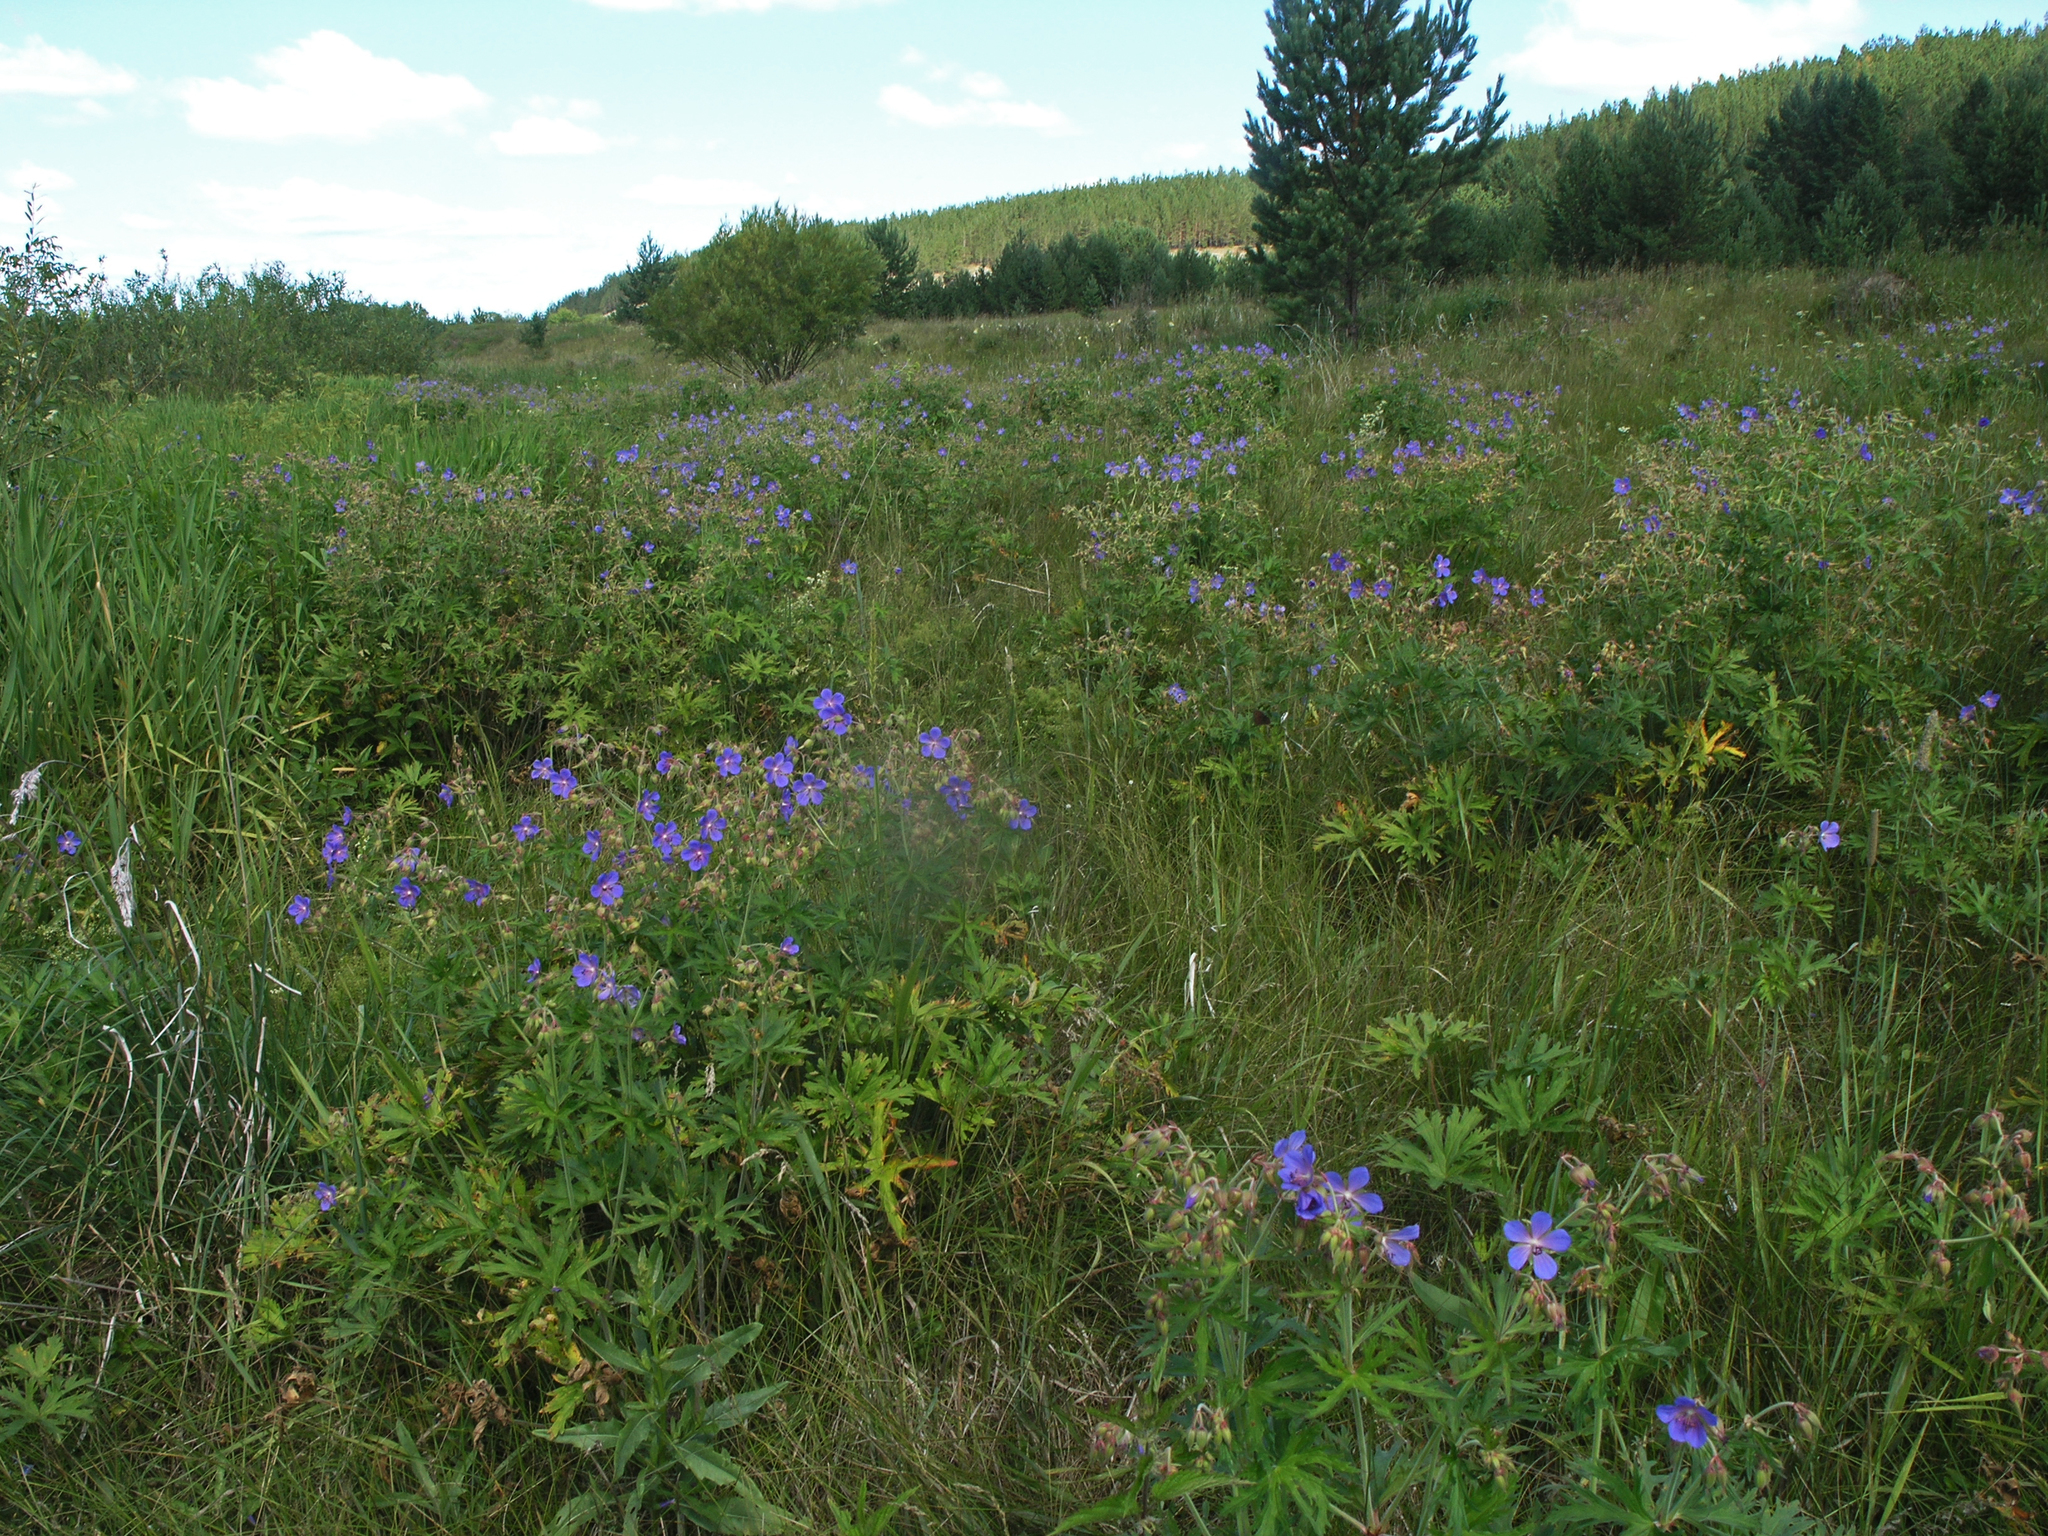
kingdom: Plantae
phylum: Tracheophyta
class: Magnoliopsida
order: Geraniales
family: Geraniaceae
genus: Geranium
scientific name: Geranium pratense
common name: Meadow crane's-bill
